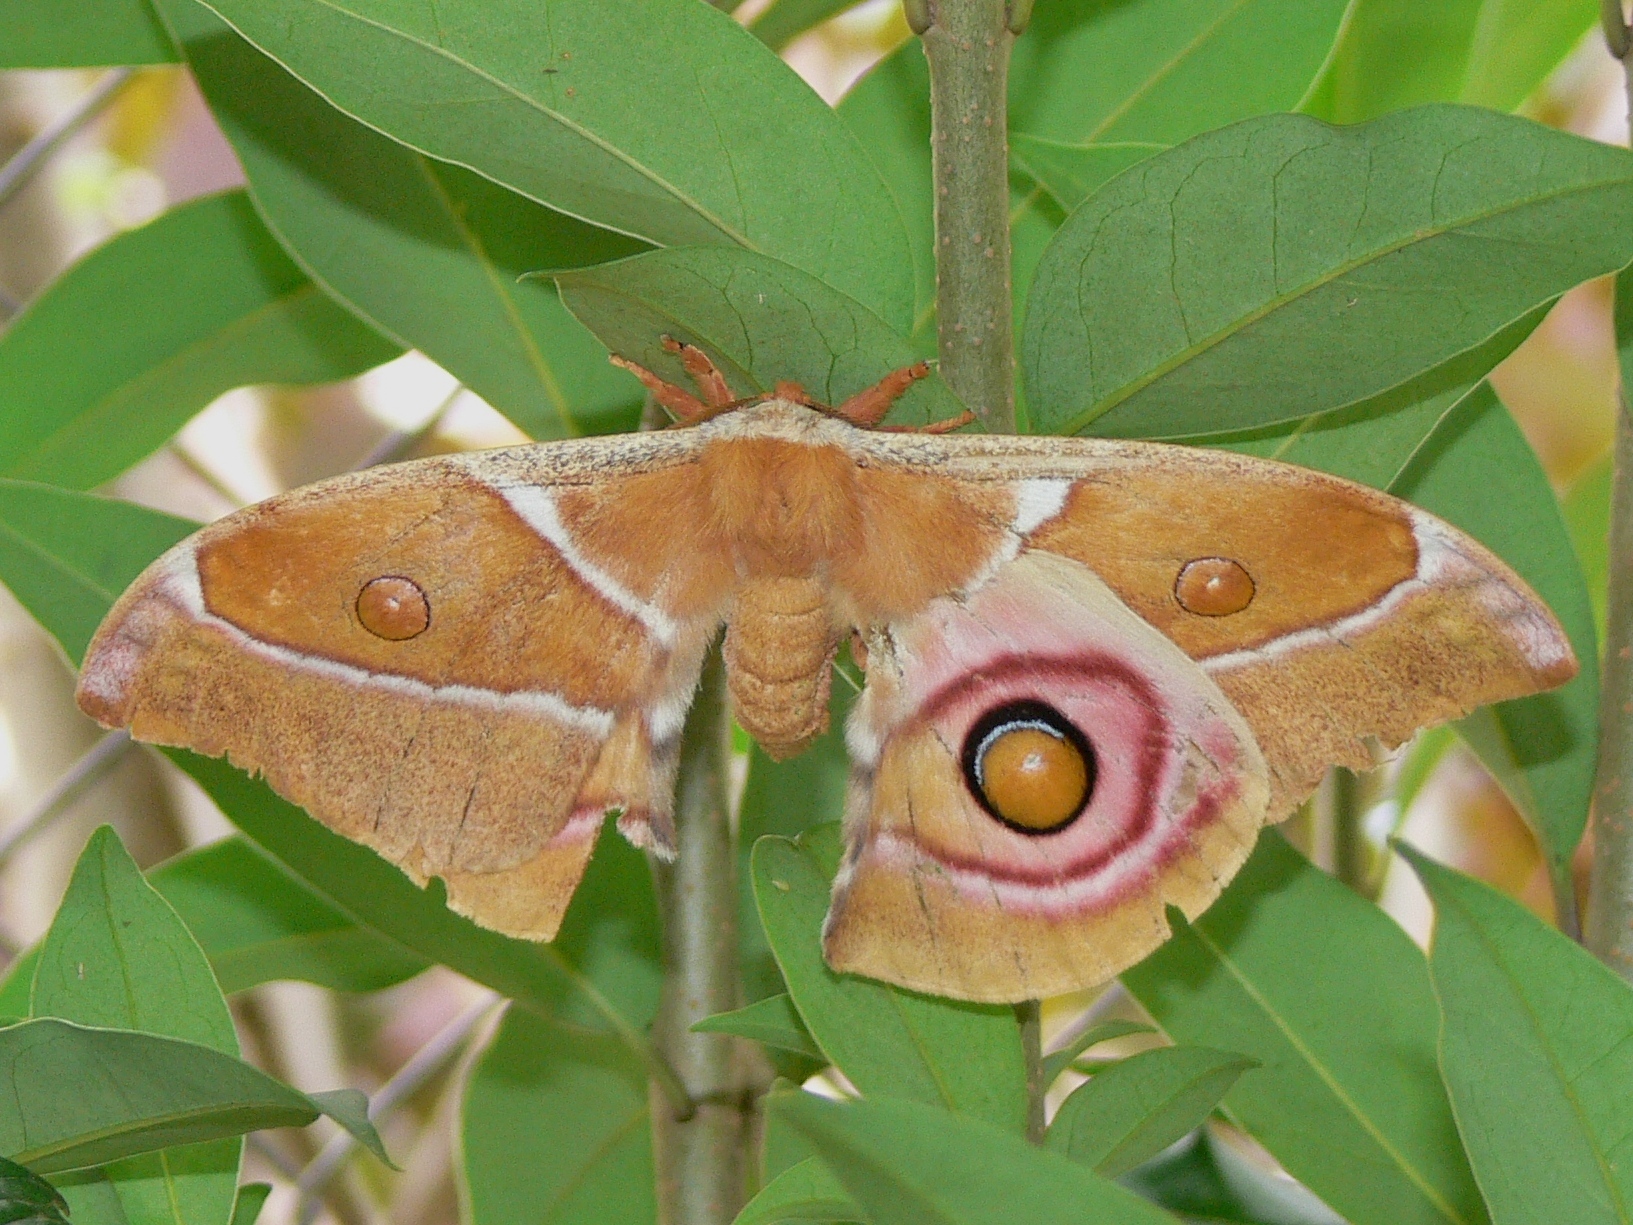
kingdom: Animalia
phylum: Arthropoda
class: Insecta
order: Lepidoptera
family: Saturniidae
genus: Antherina
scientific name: Antherina suraka
